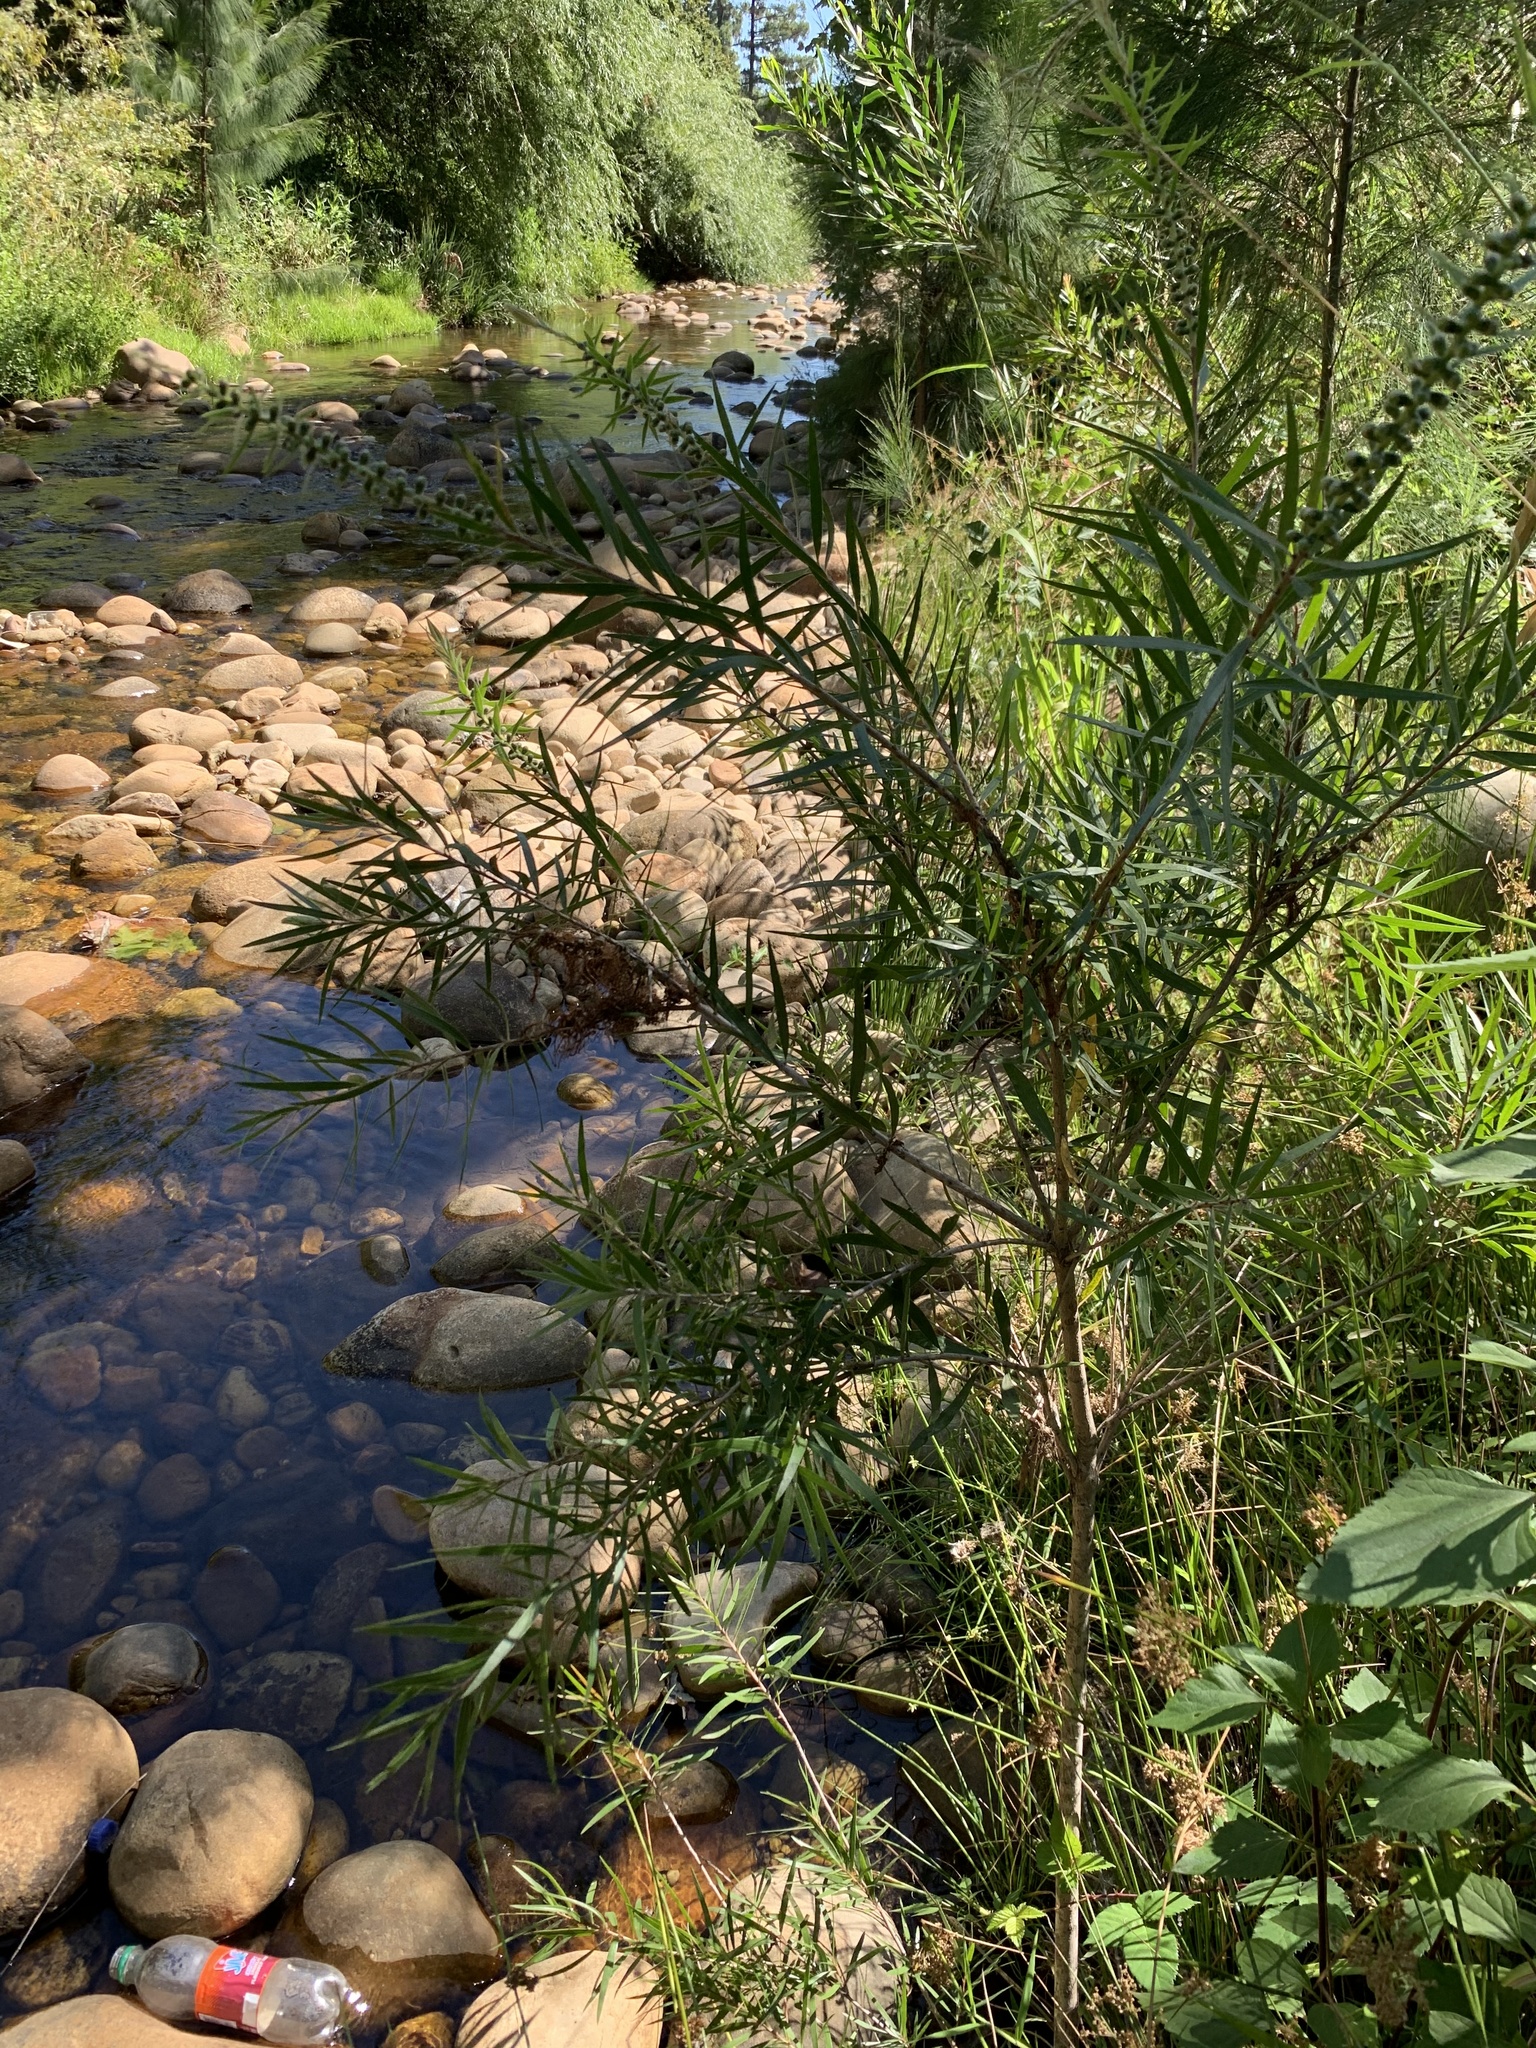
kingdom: Plantae
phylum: Tracheophyta
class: Magnoliopsida
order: Myrtales
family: Myrtaceae
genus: Callistemon
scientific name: Callistemon viminalis
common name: Drooping bottlebrush
